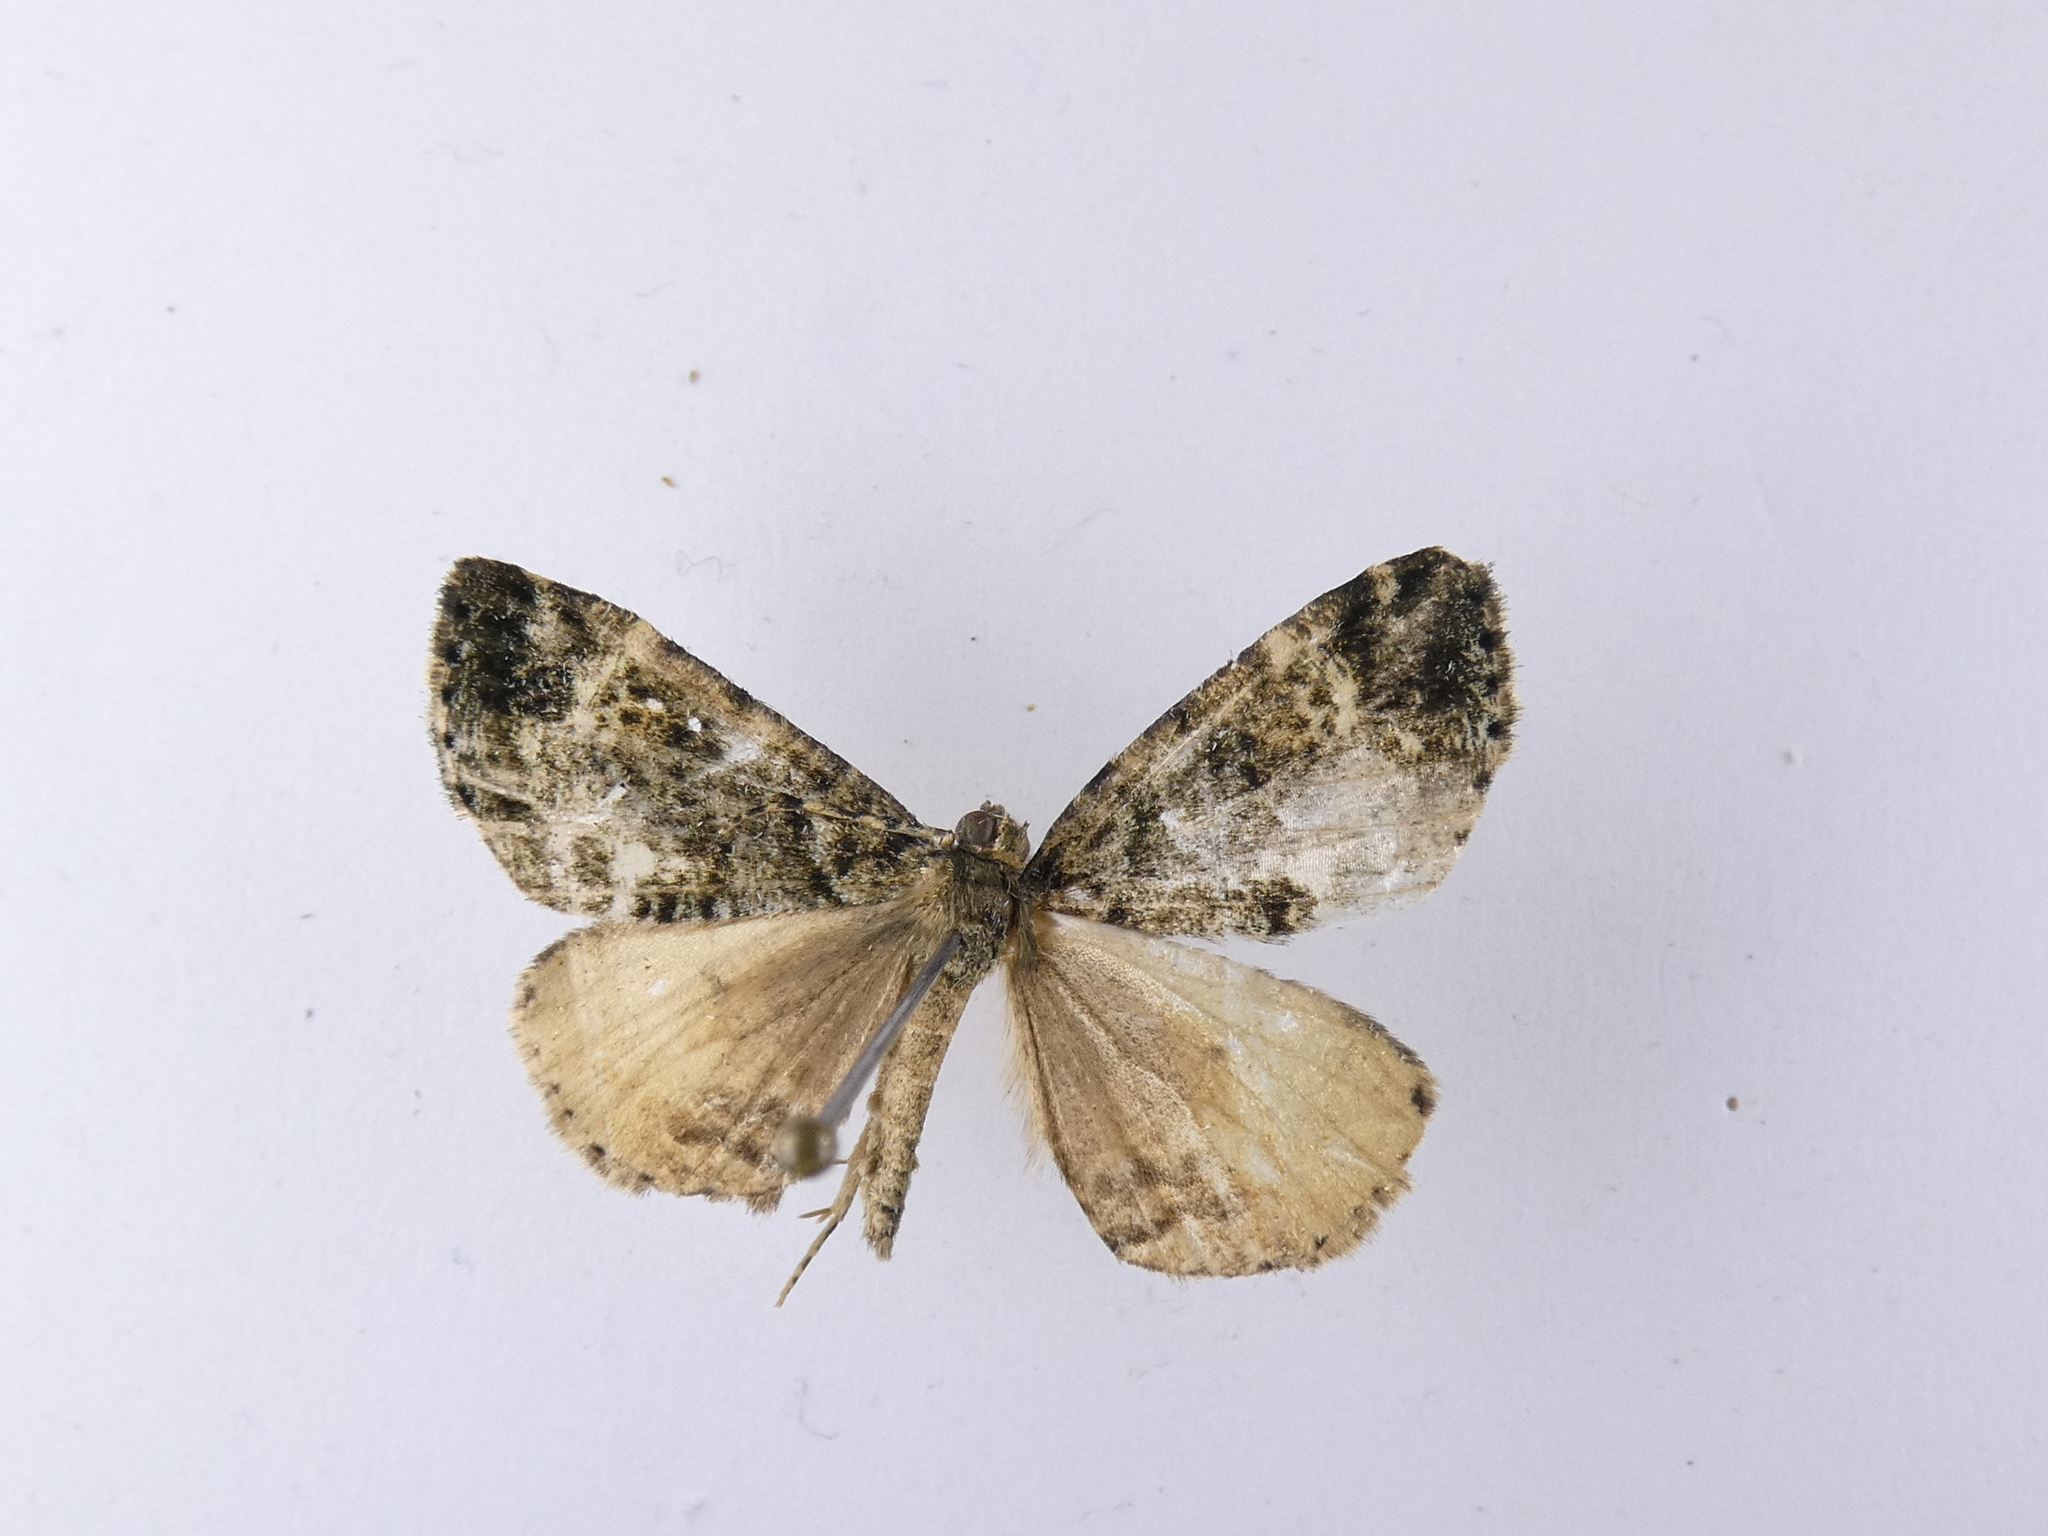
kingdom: Animalia
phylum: Arthropoda
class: Insecta
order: Lepidoptera
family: Geometridae
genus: Pseudocoremia
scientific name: Pseudocoremia indistincta
